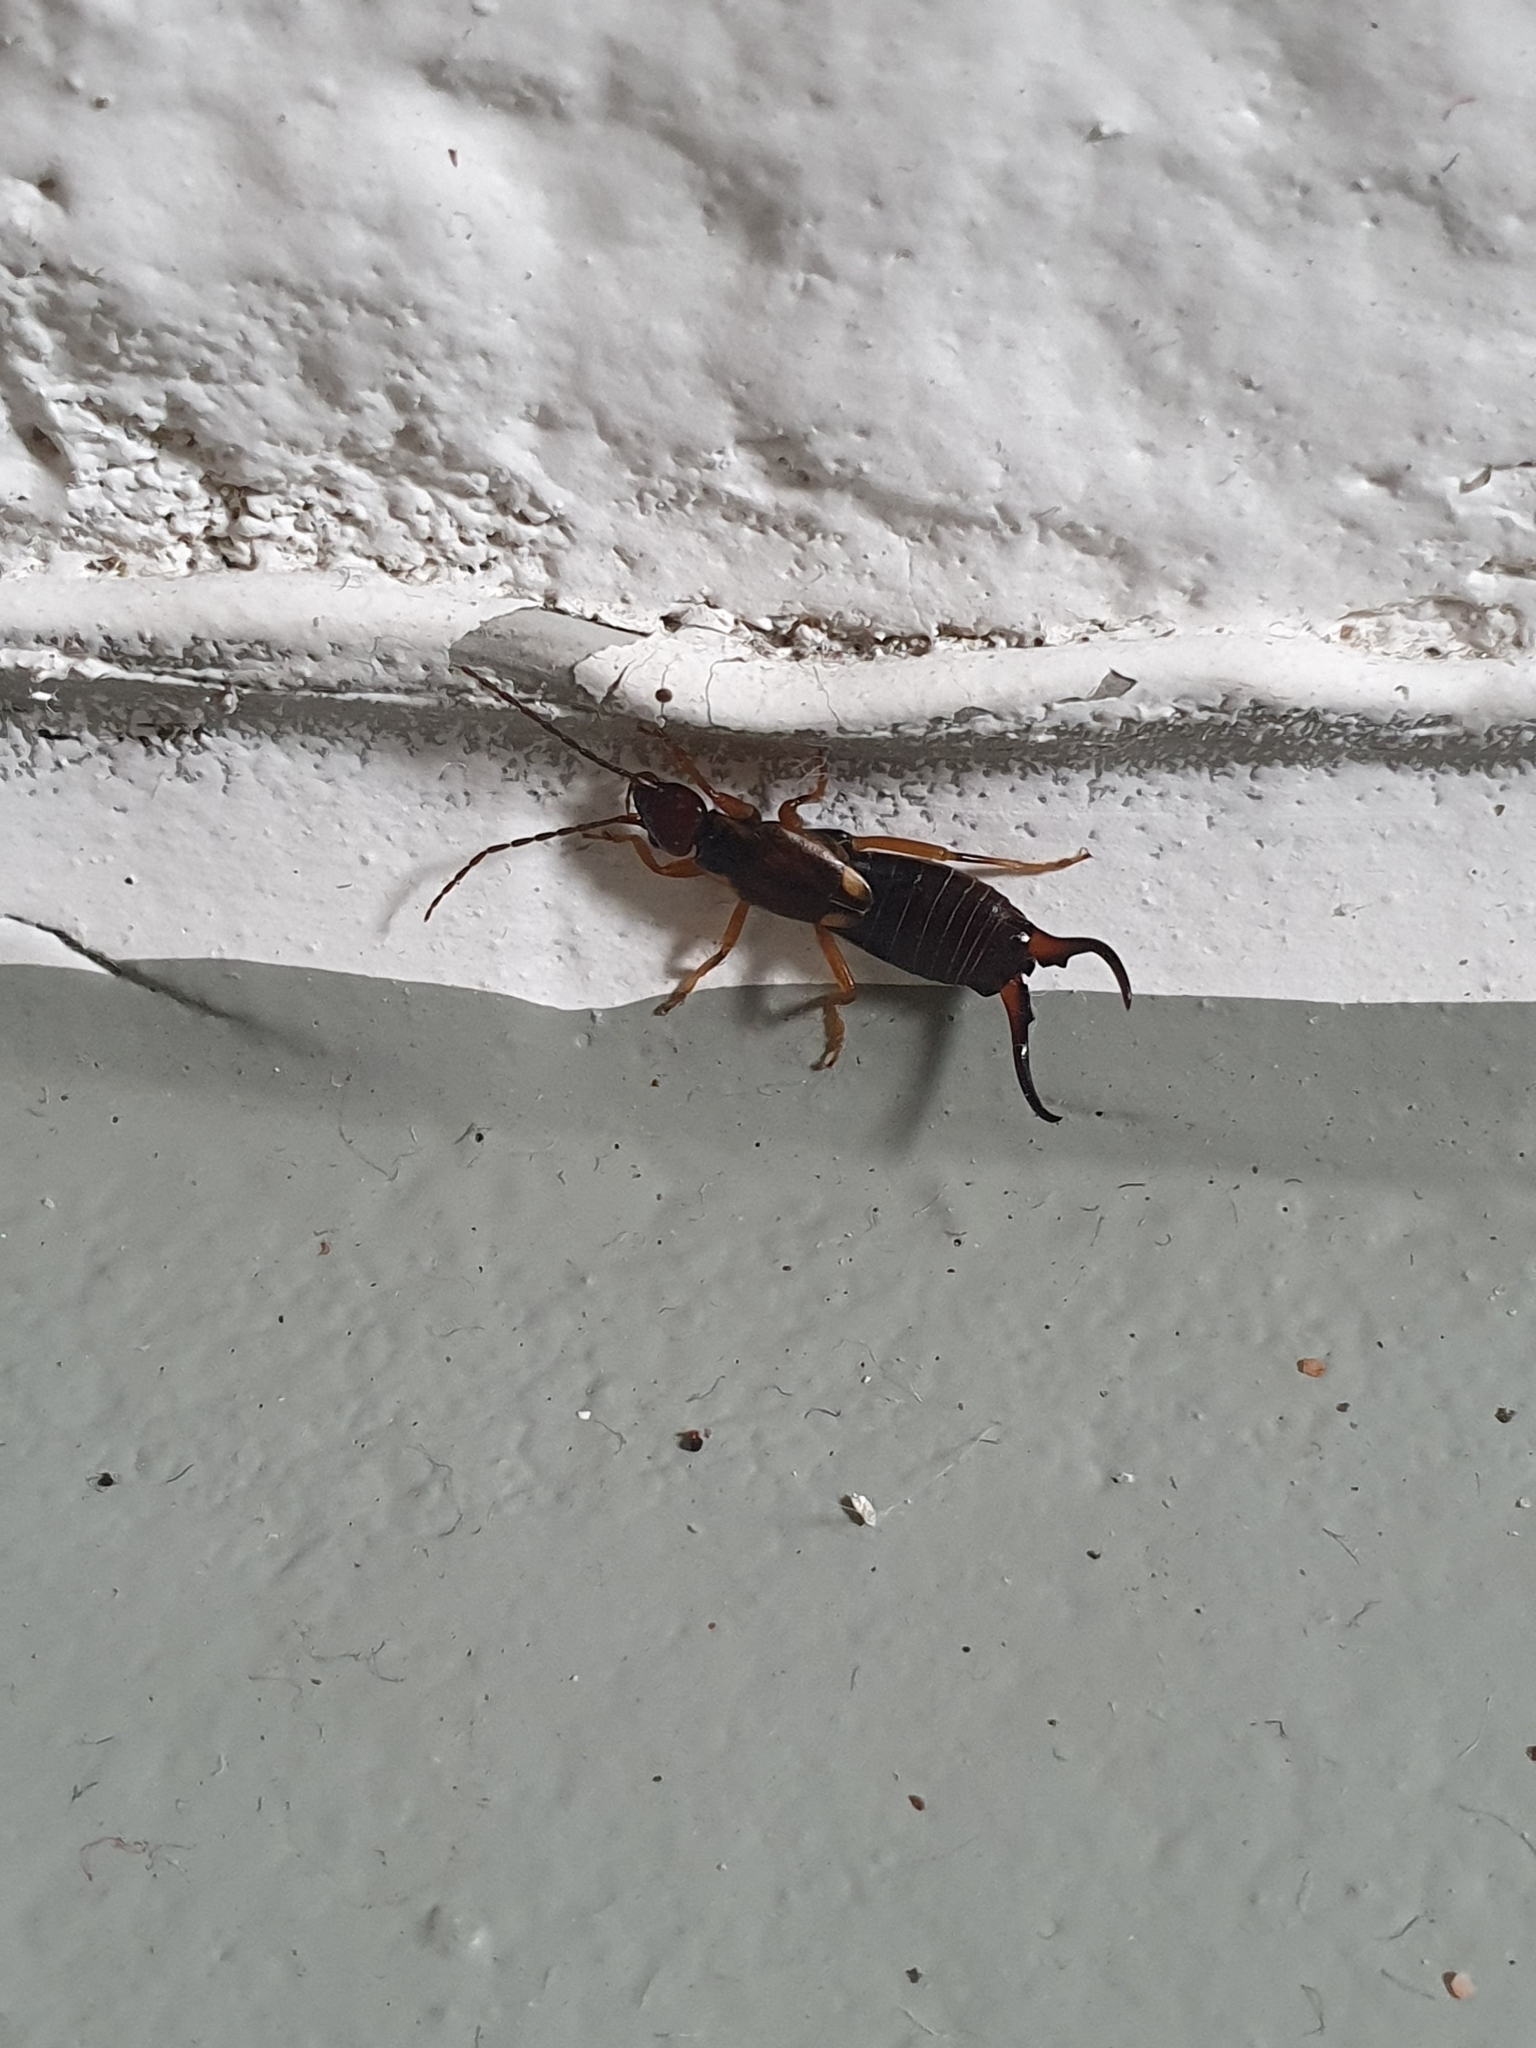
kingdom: Animalia
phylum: Arthropoda
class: Insecta
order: Dermaptera
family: Forficulidae
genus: Forficula
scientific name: Forficula
